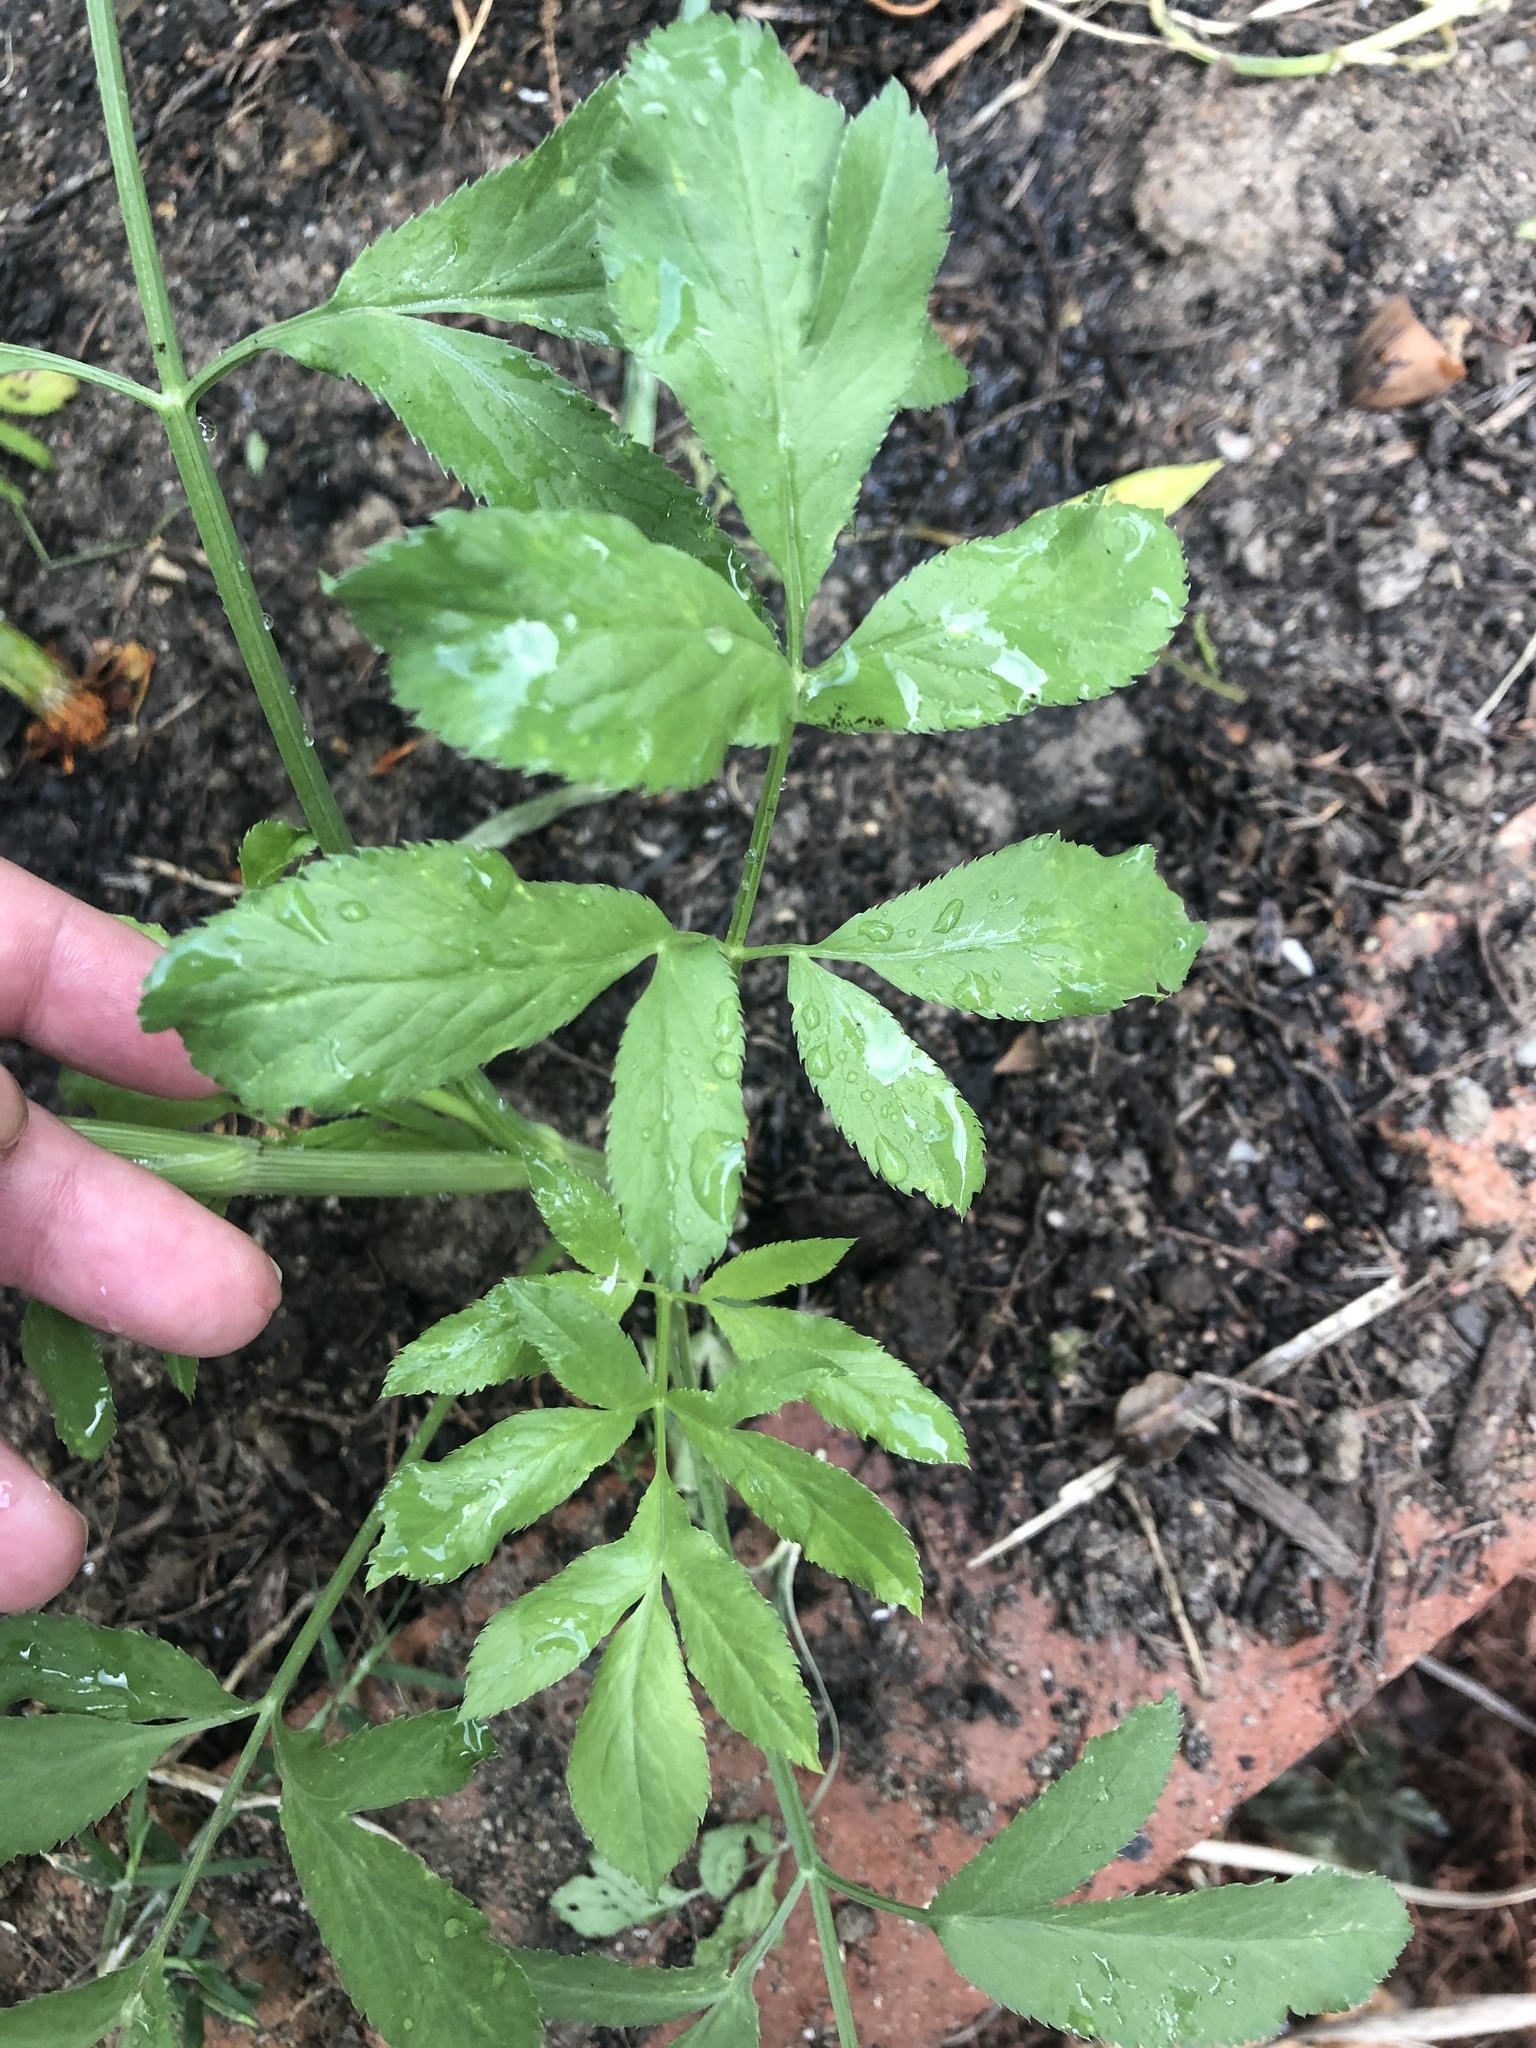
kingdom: Plantae
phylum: Tracheophyta
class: Magnoliopsida
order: Apiales
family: Apiaceae
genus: Ammi
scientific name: Ammi majus
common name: Bullwort
